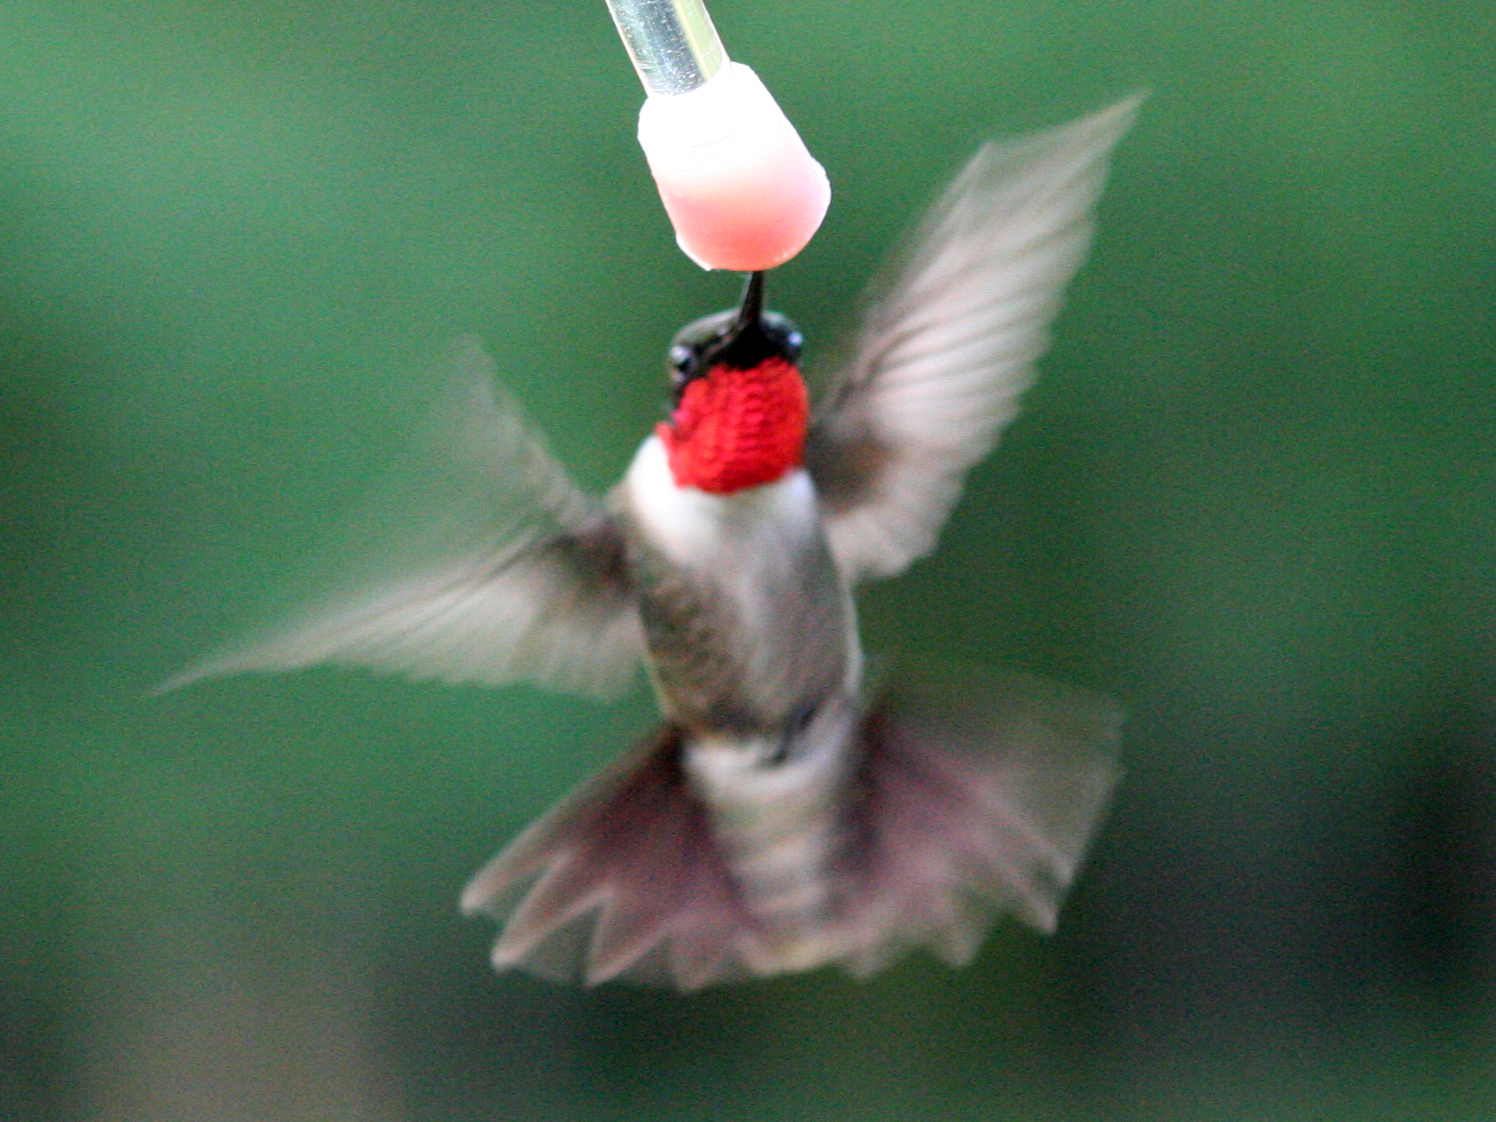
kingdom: Animalia
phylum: Chordata
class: Aves
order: Apodiformes
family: Trochilidae
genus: Archilochus
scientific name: Archilochus colubris
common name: Ruby-throated hummingbird
